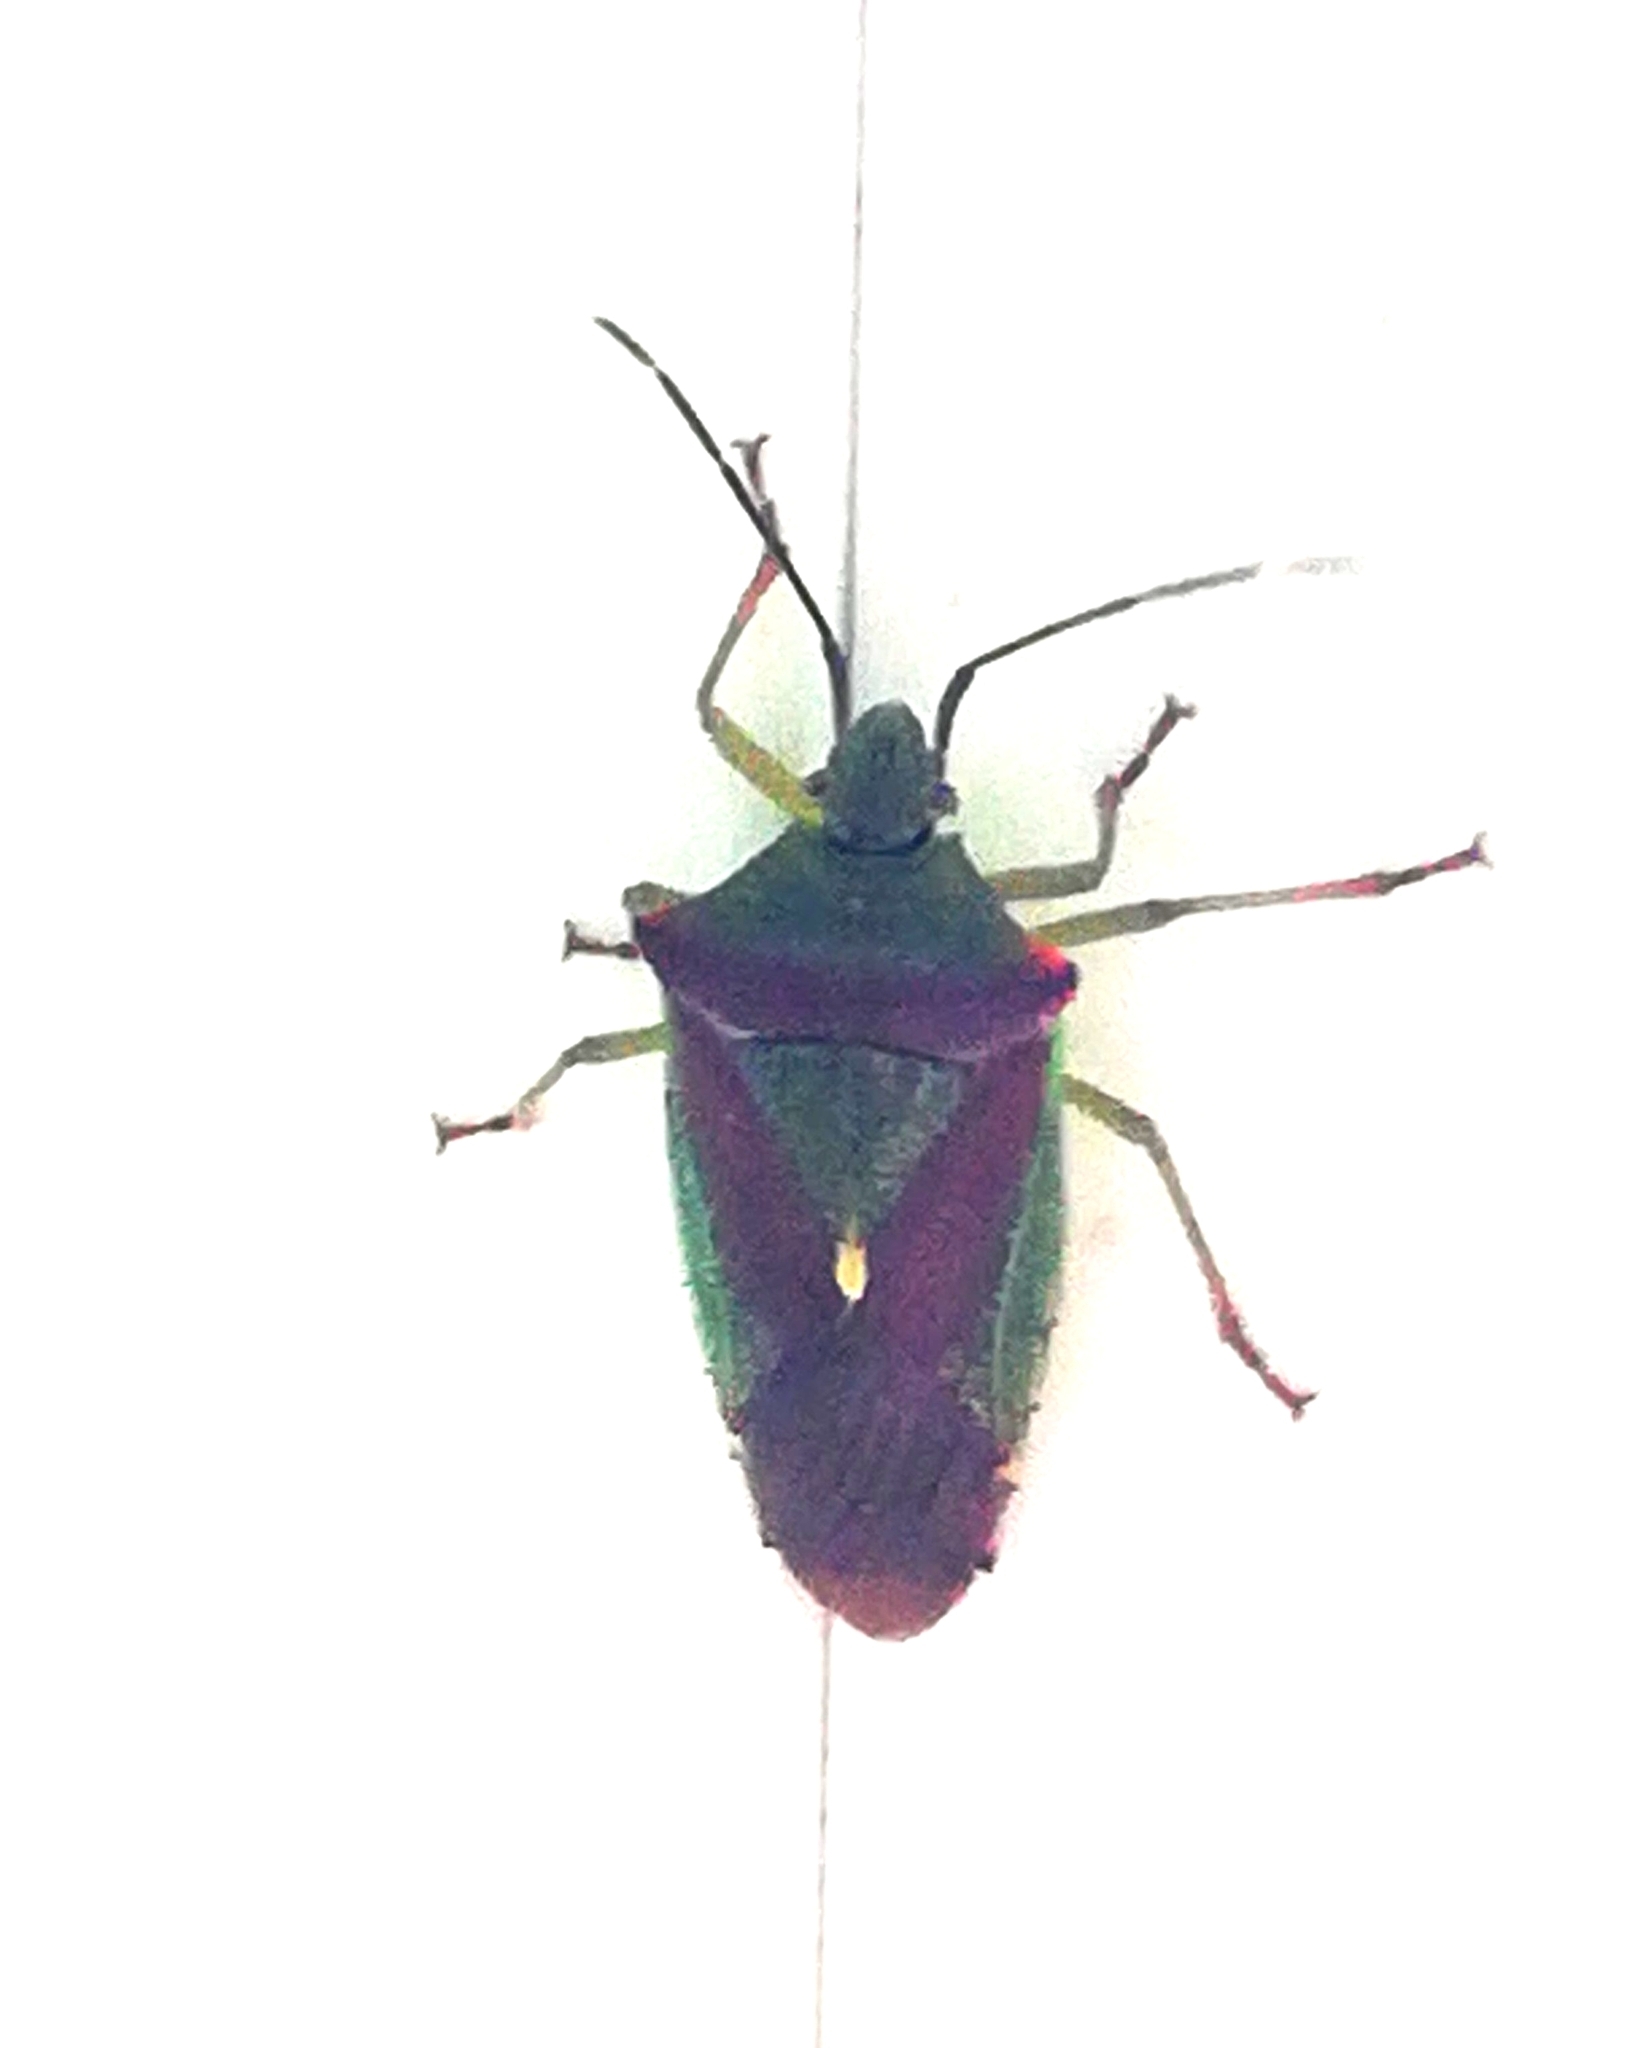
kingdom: Animalia
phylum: Arthropoda
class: Insecta
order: Hemiptera
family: Acanthosomatidae
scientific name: Acanthosomatidae
